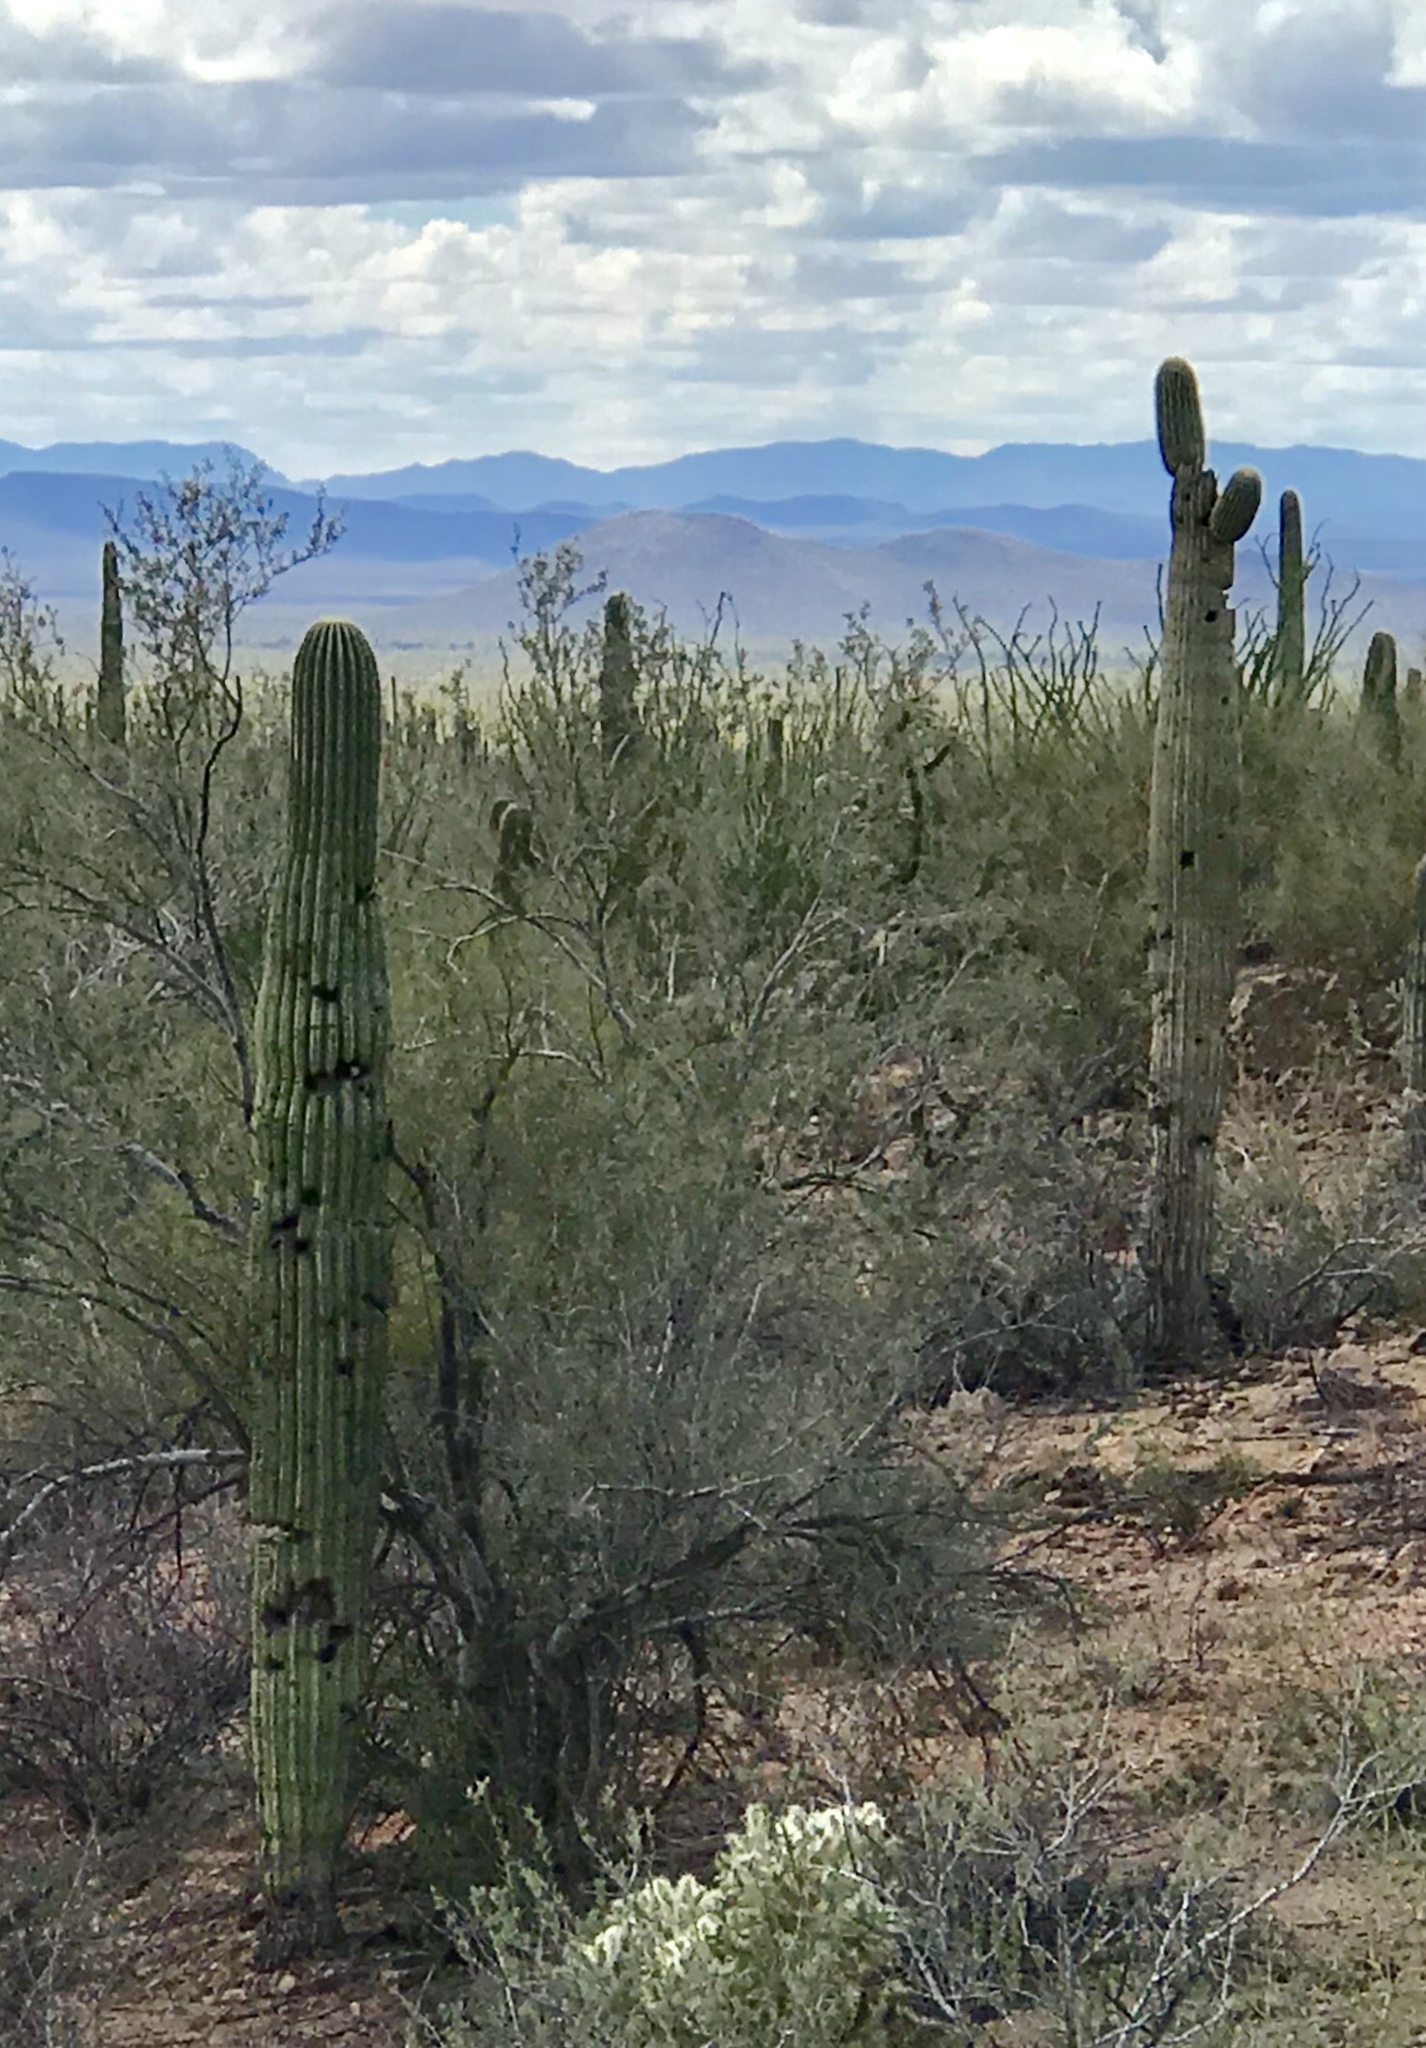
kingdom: Plantae
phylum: Tracheophyta
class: Magnoliopsida
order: Caryophyllales
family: Cactaceae
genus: Carnegiea
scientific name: Carnegiea gigantea
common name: Saguaro
